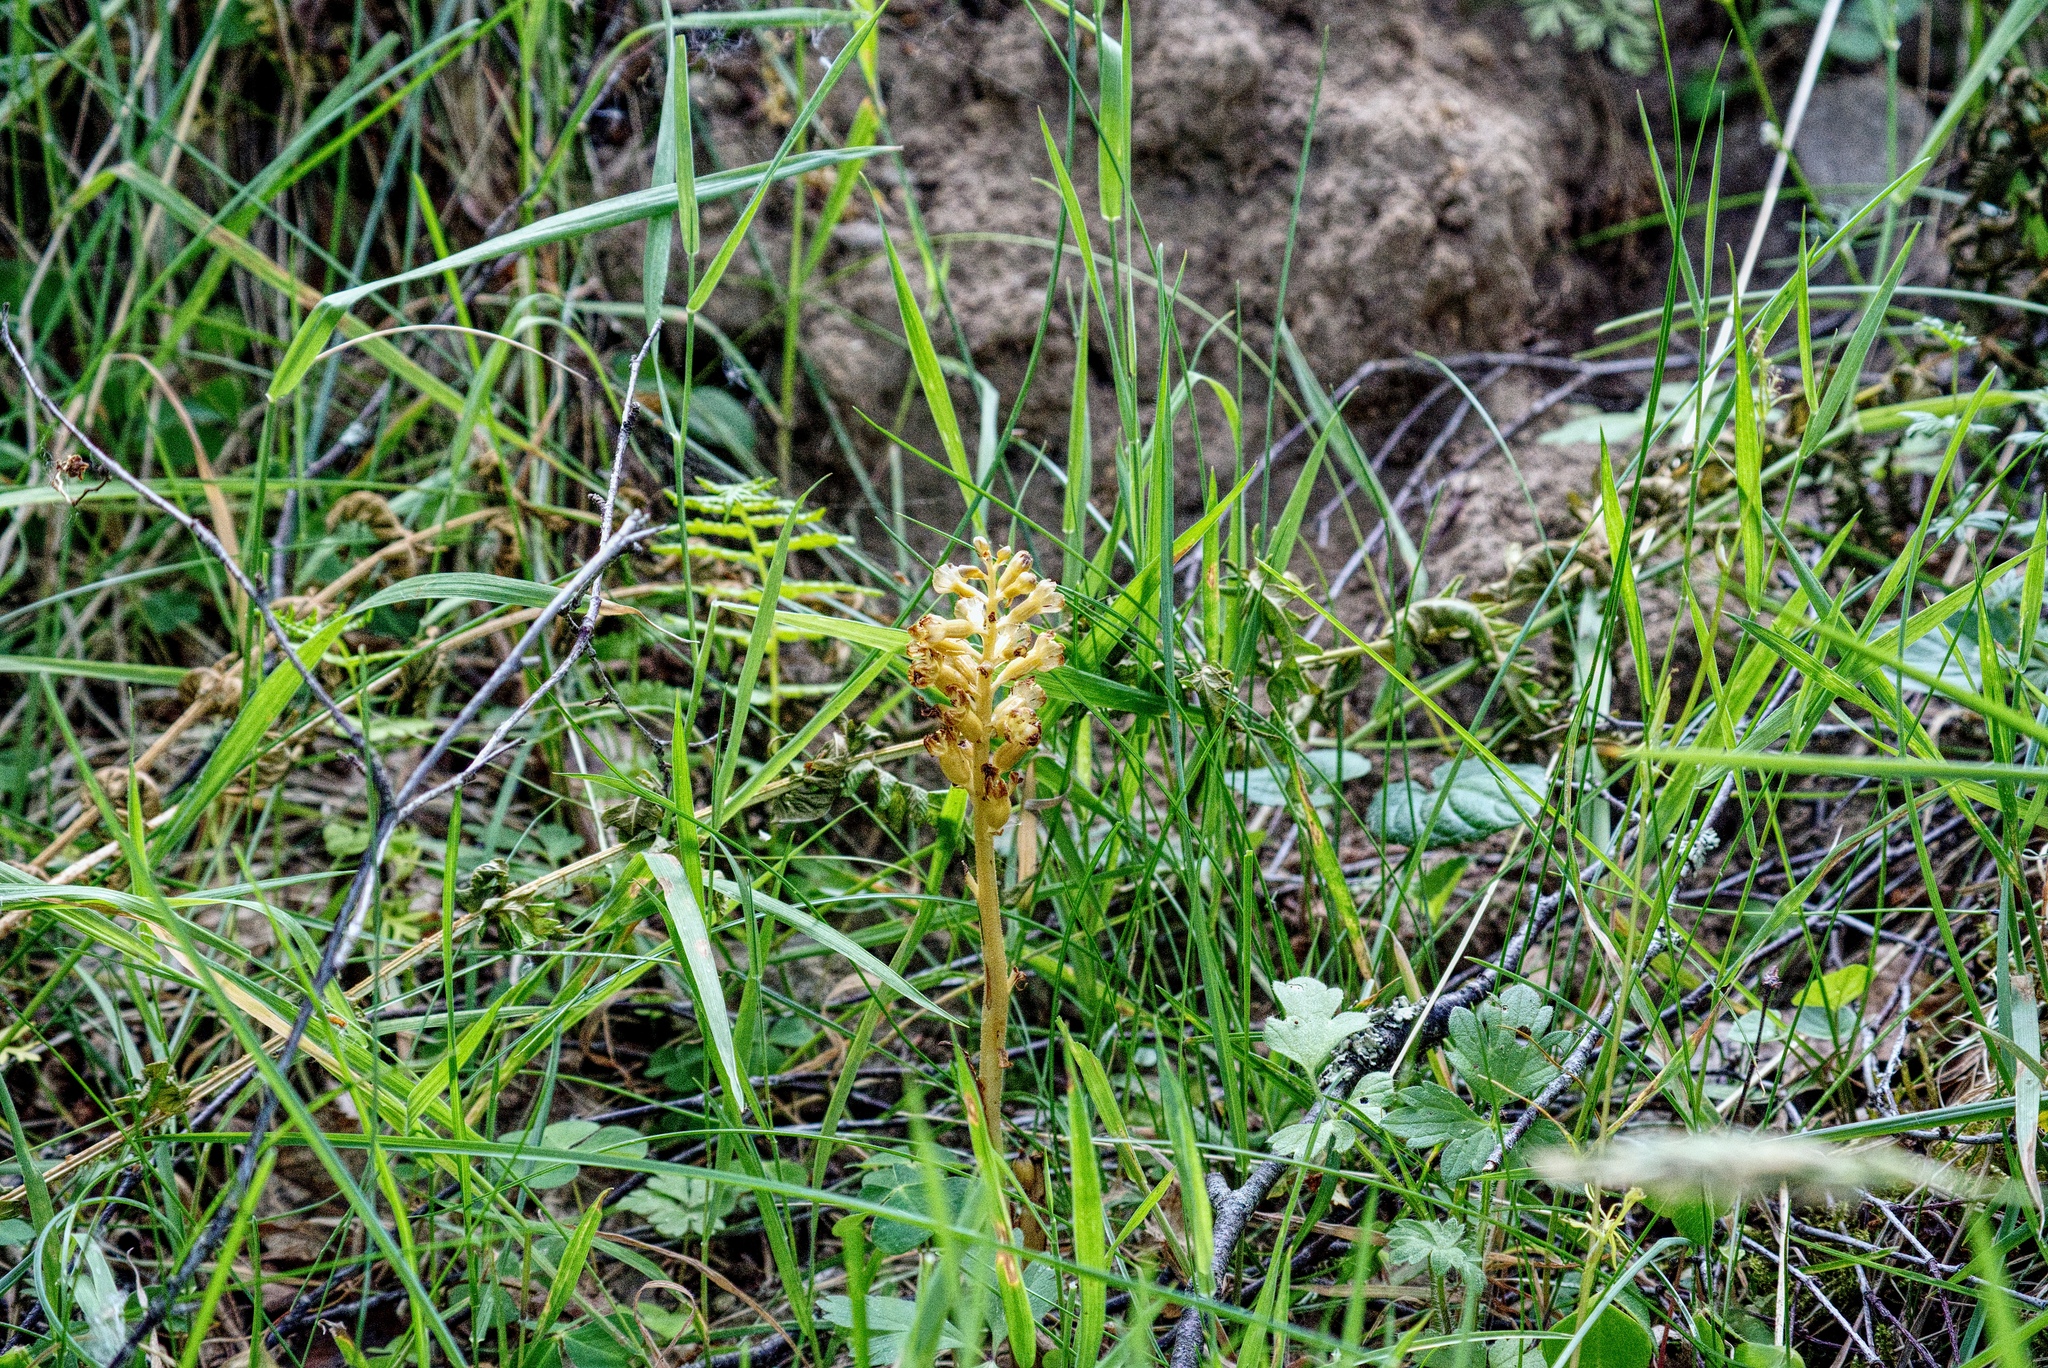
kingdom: Plantae
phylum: Tracheophyta
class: Liliopsida
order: Asparagales
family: Orchidaceae
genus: Neottia
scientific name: Neottia nidus-avis
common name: Bird's-nest orchid
